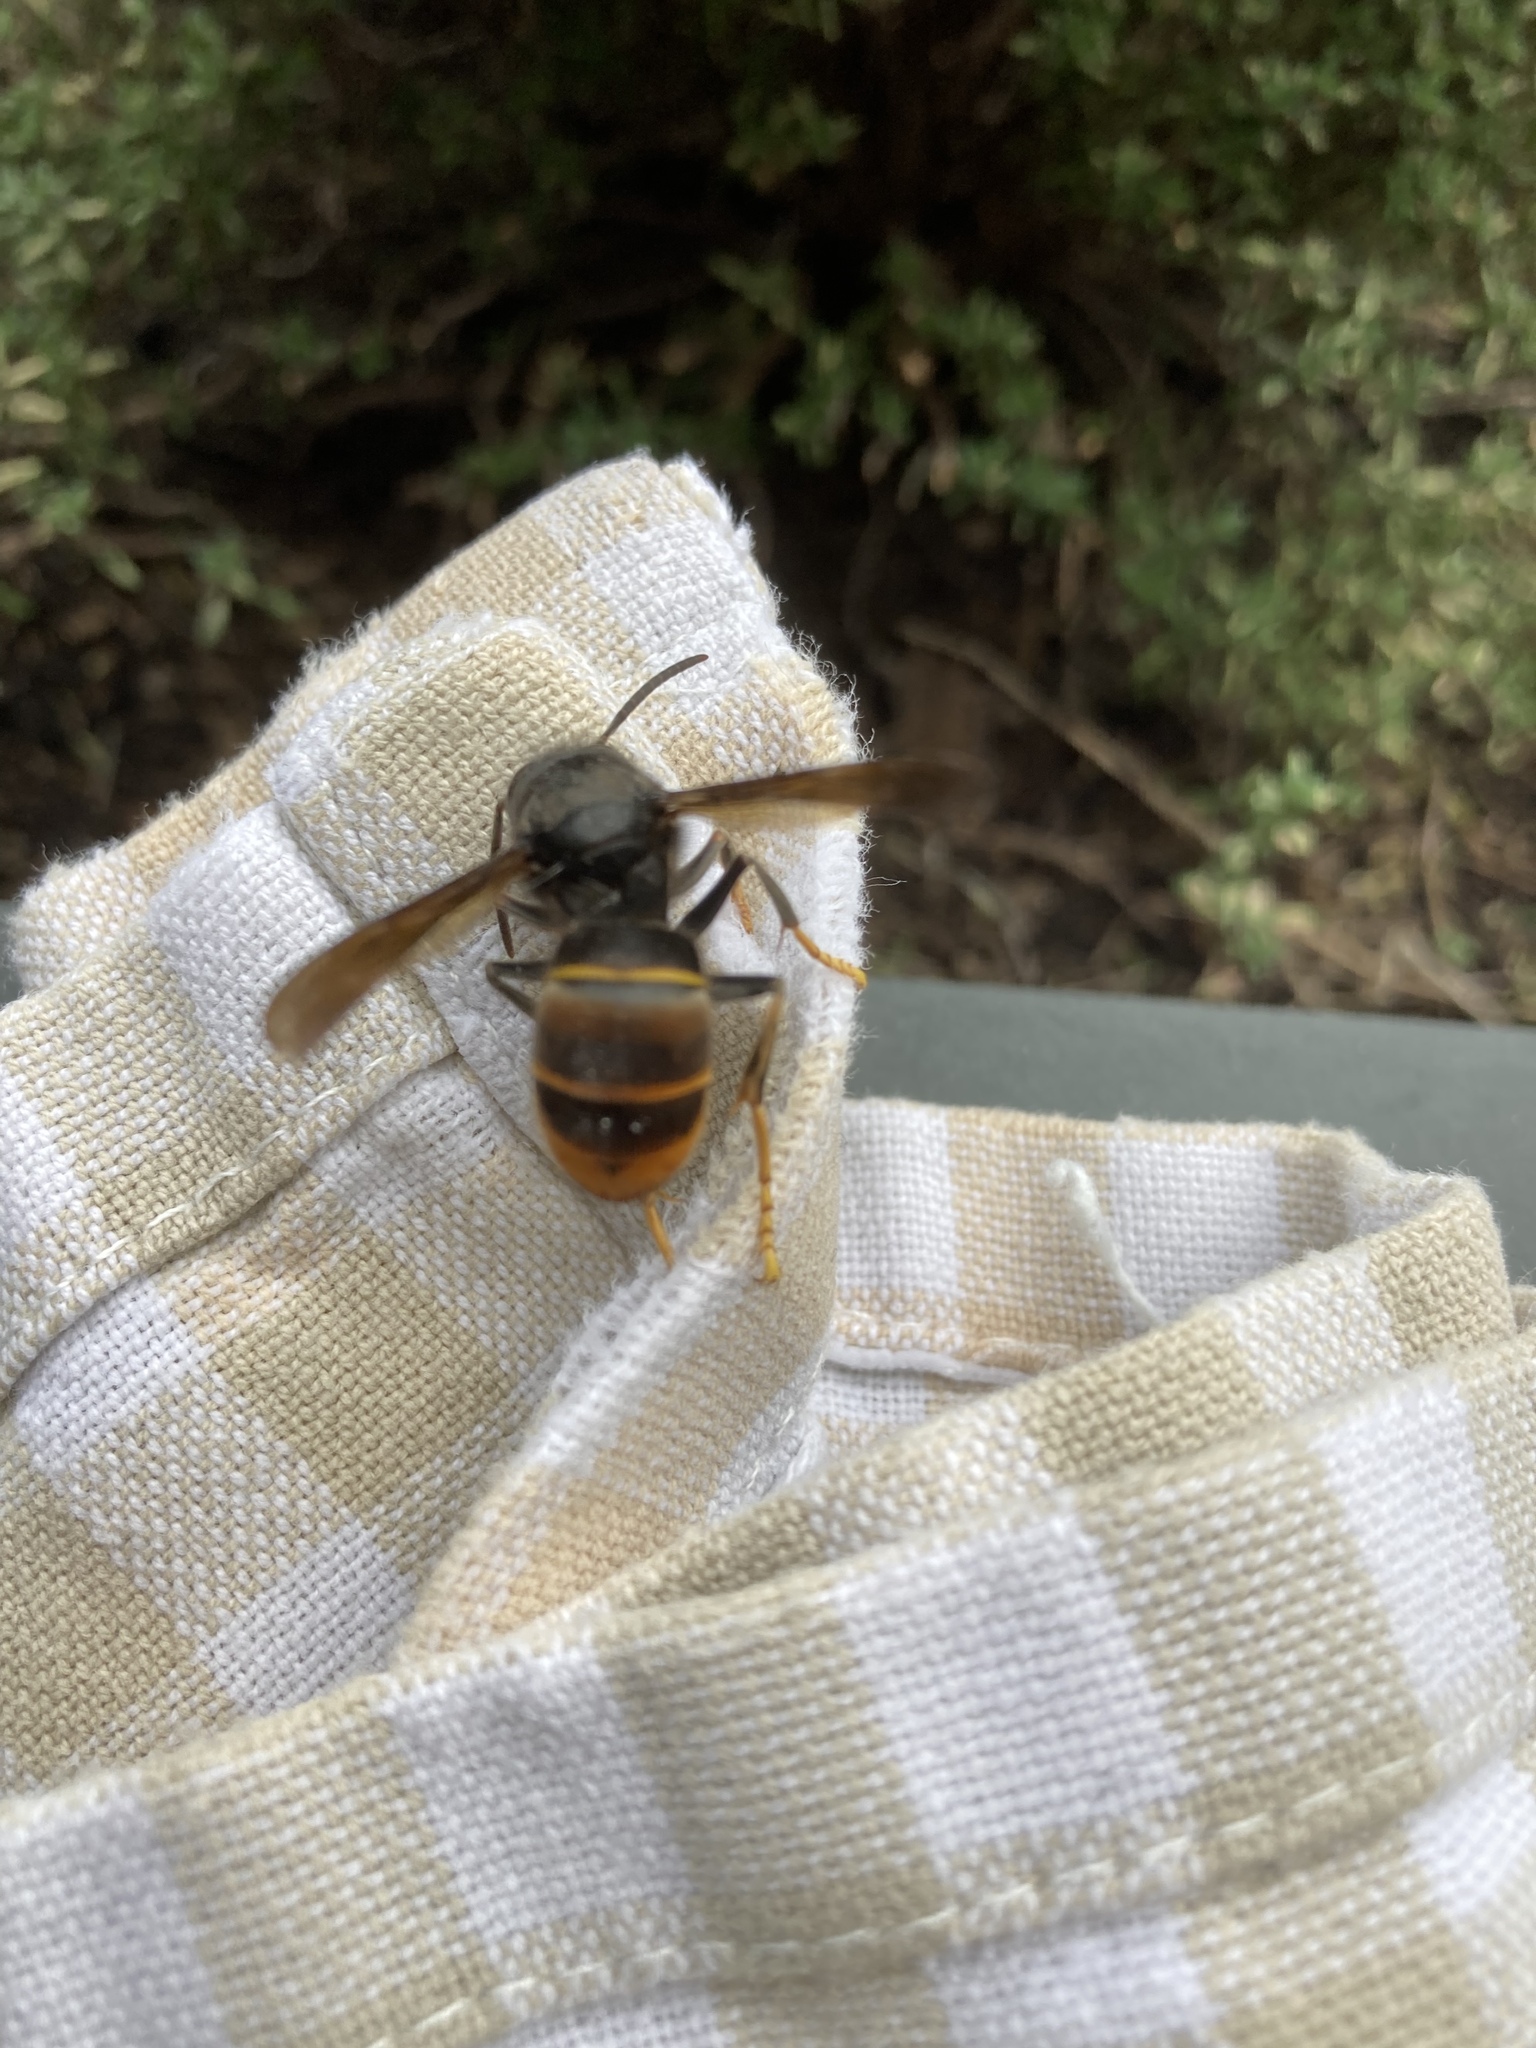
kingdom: Animalia
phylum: Arthropoda
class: Insecta
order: Hymenoptera
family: Vespidae
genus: Vespa
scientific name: Vespa velutina
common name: Asian hornet
